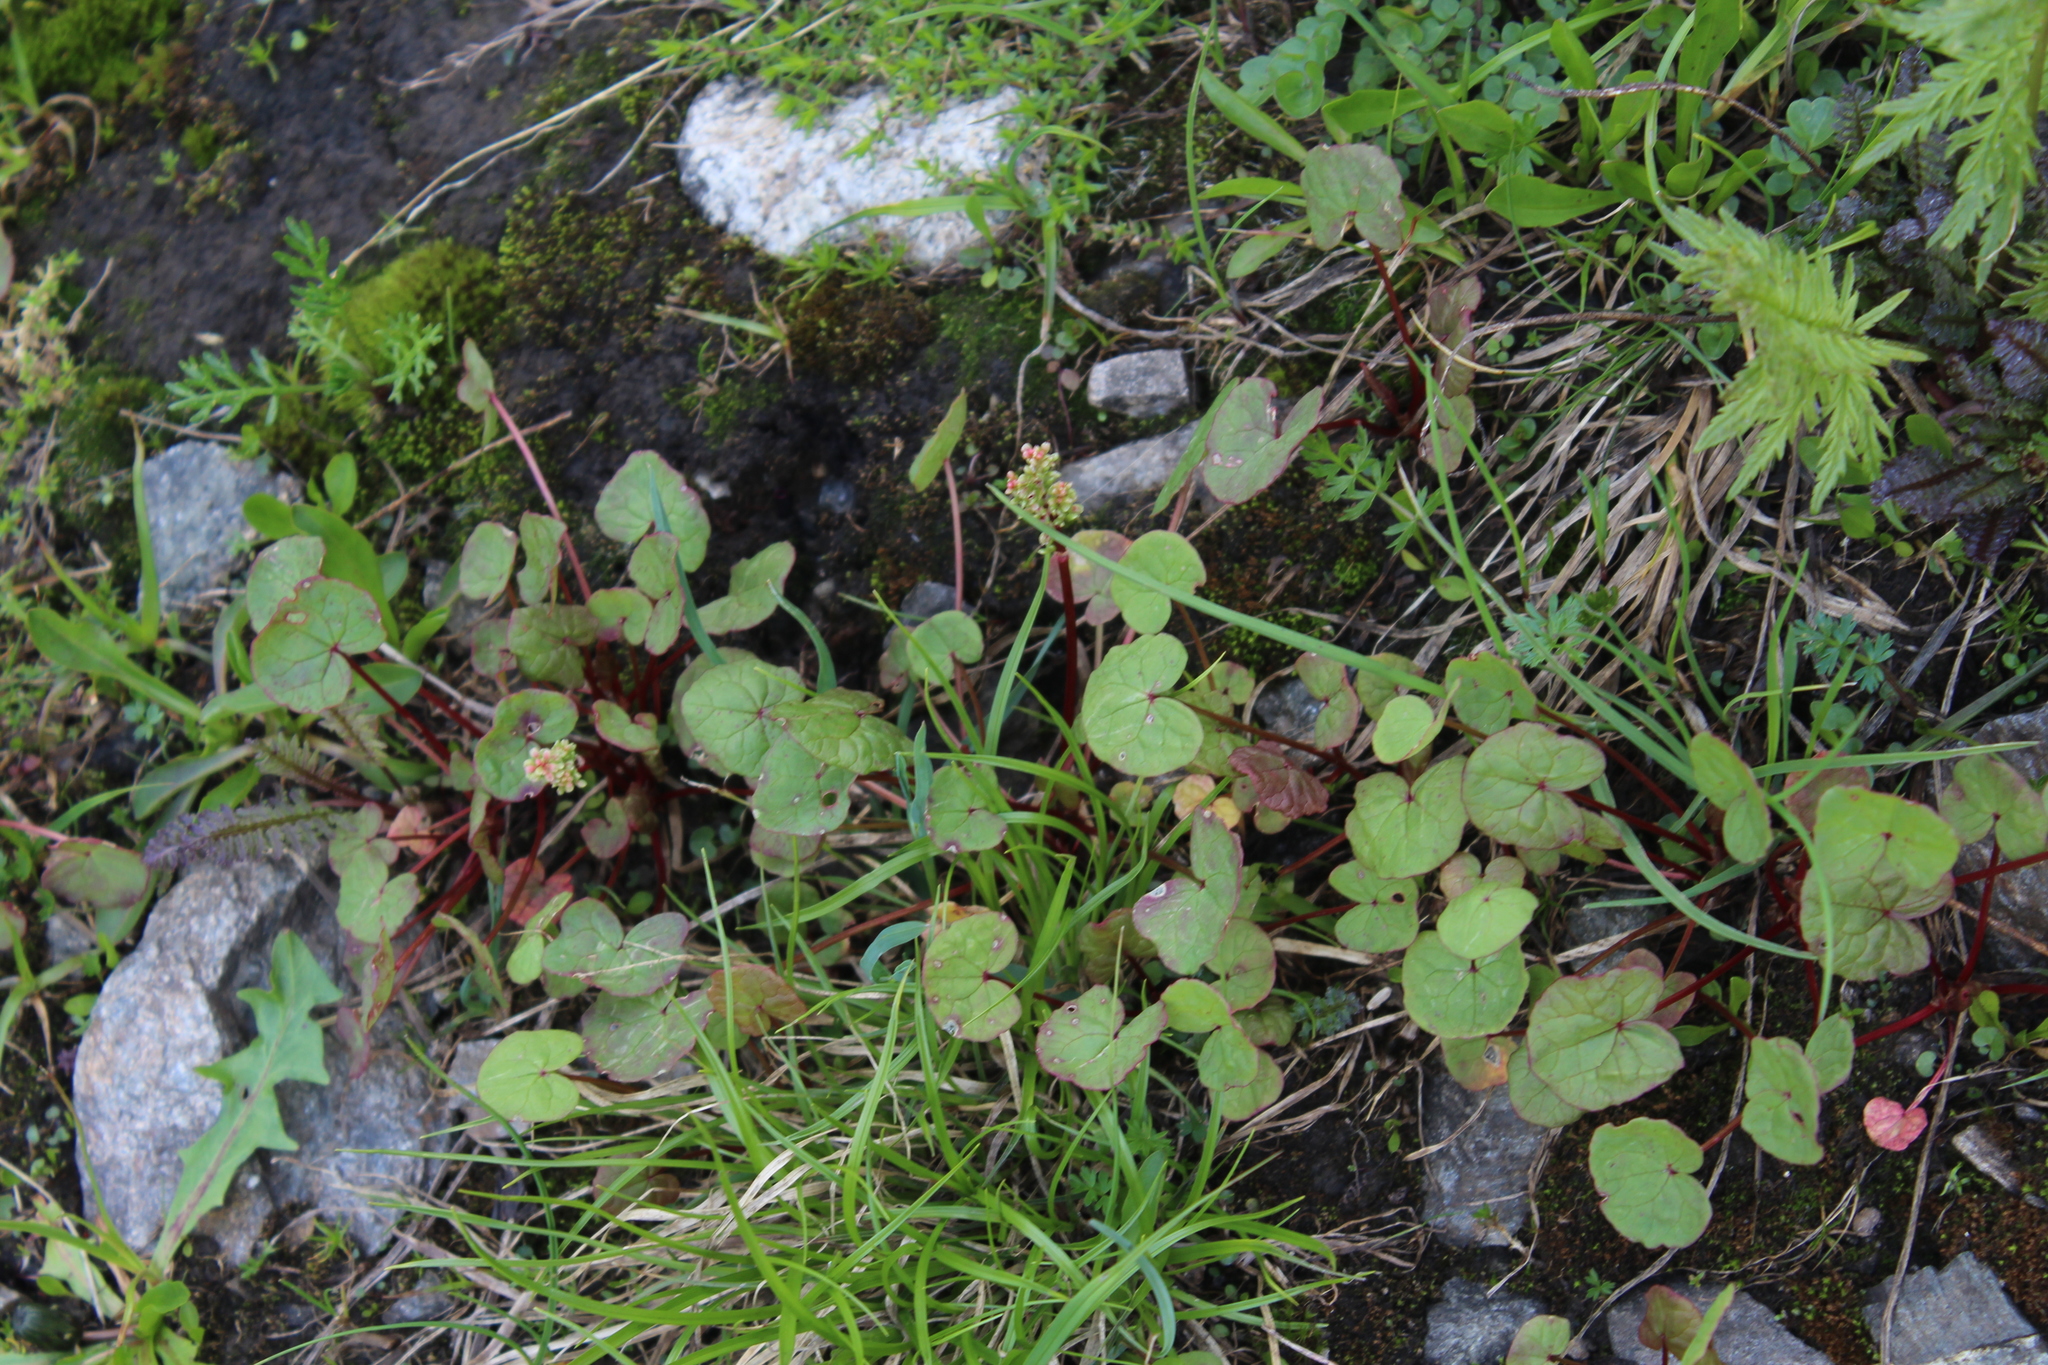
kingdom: Plantae
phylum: Tracheophyta
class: Magnoliopsida
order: Caryophyllales
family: Polygonaceae
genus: Oxyria
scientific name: Oxyria digyna
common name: Alpine mountain-sorrel
